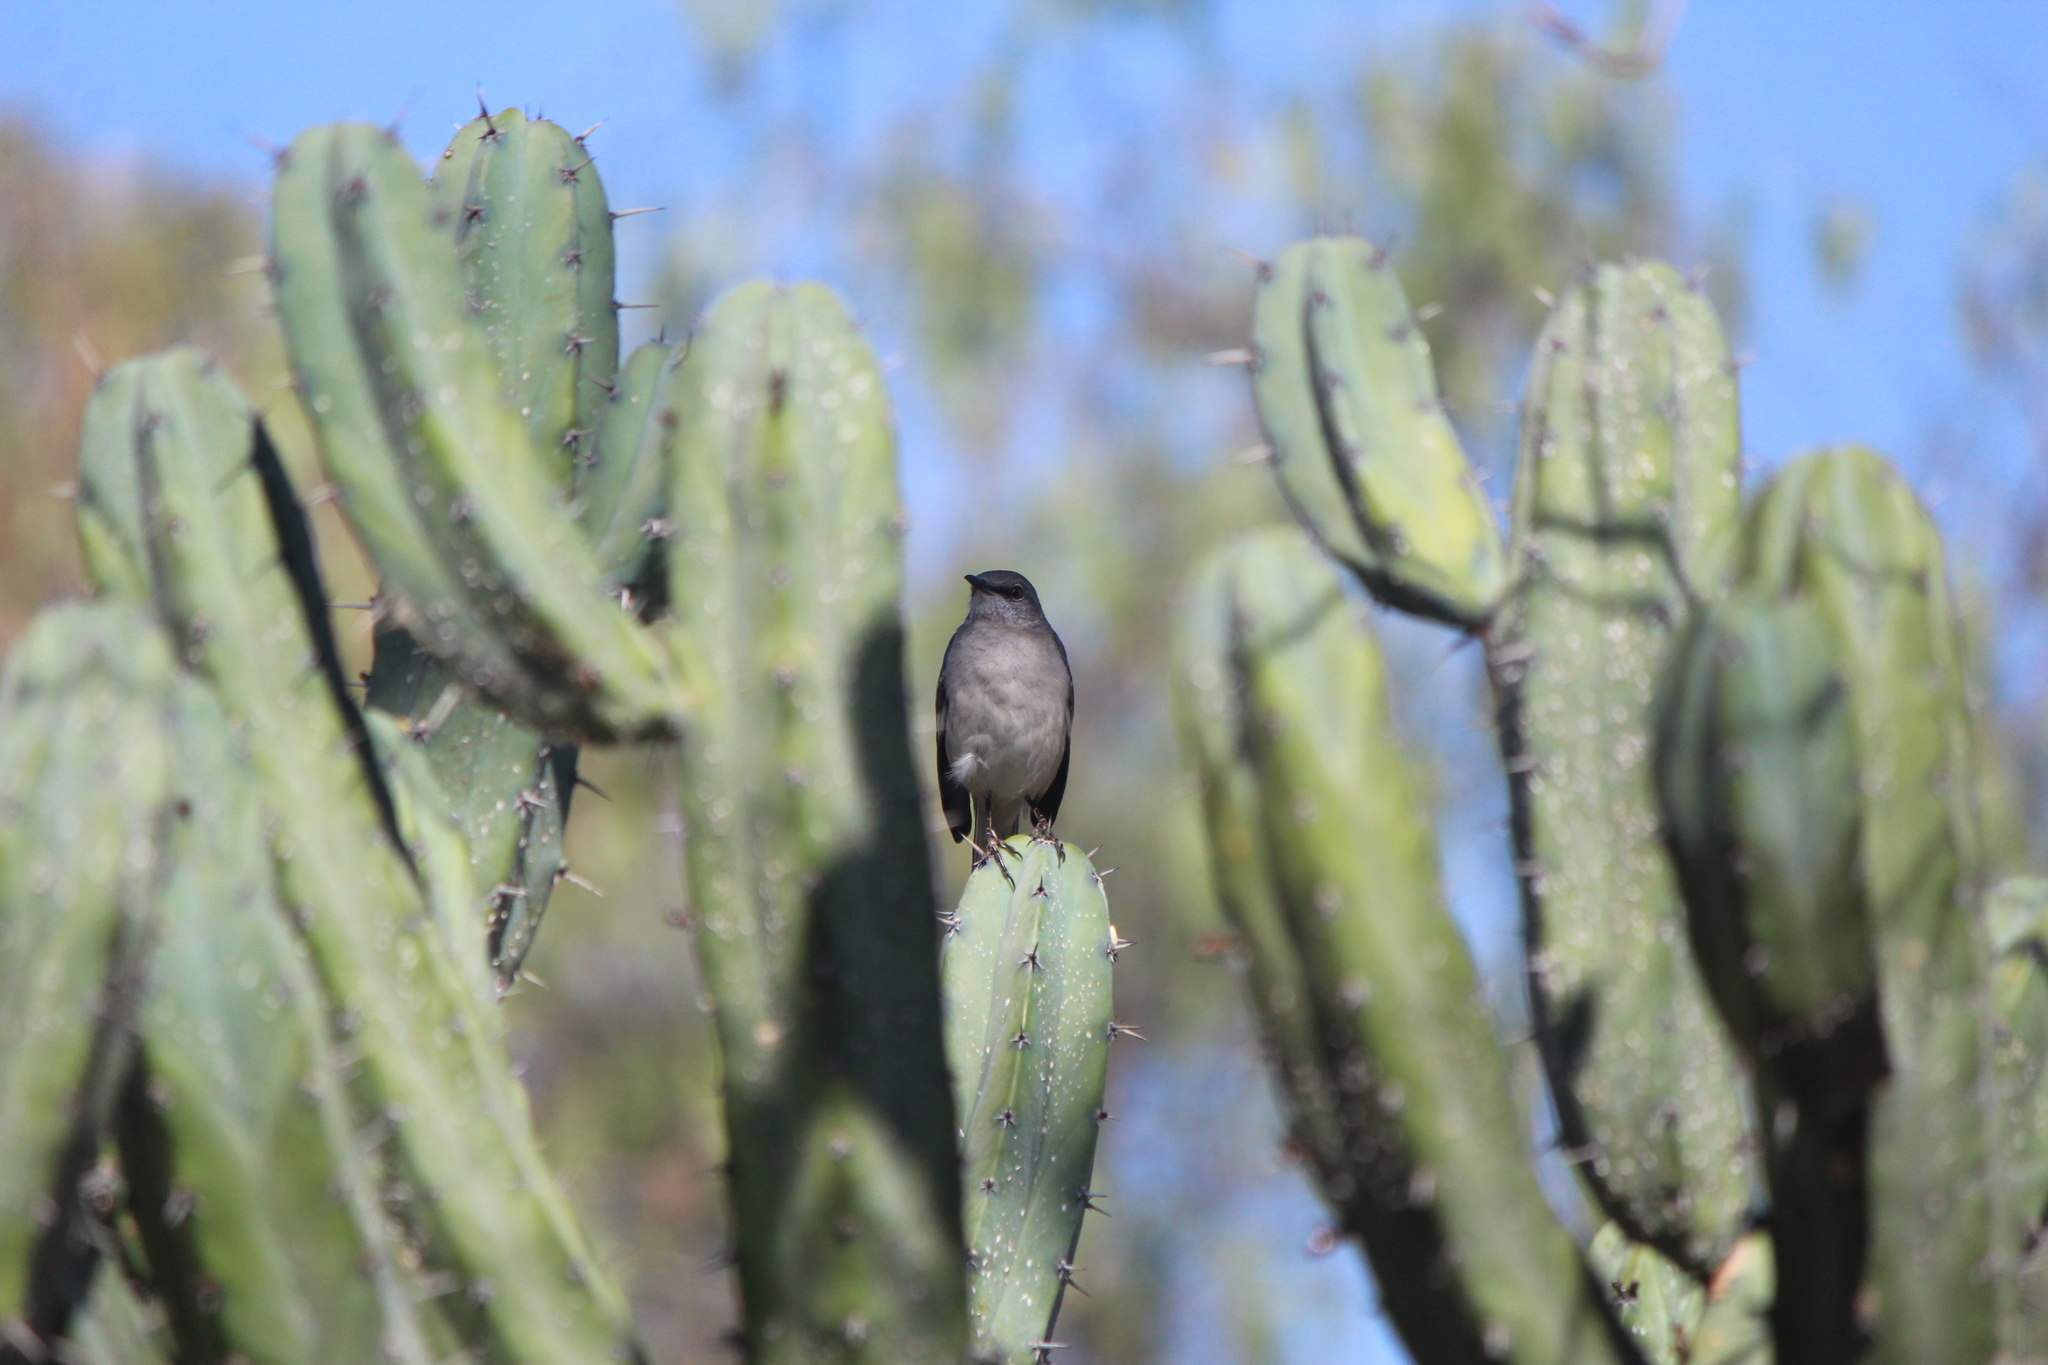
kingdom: Animalia
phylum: Chordata
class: Aves
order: Passeriformes
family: Mimidae
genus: Mimus
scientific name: Mimus polyglottos
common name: Northern mockingbird
